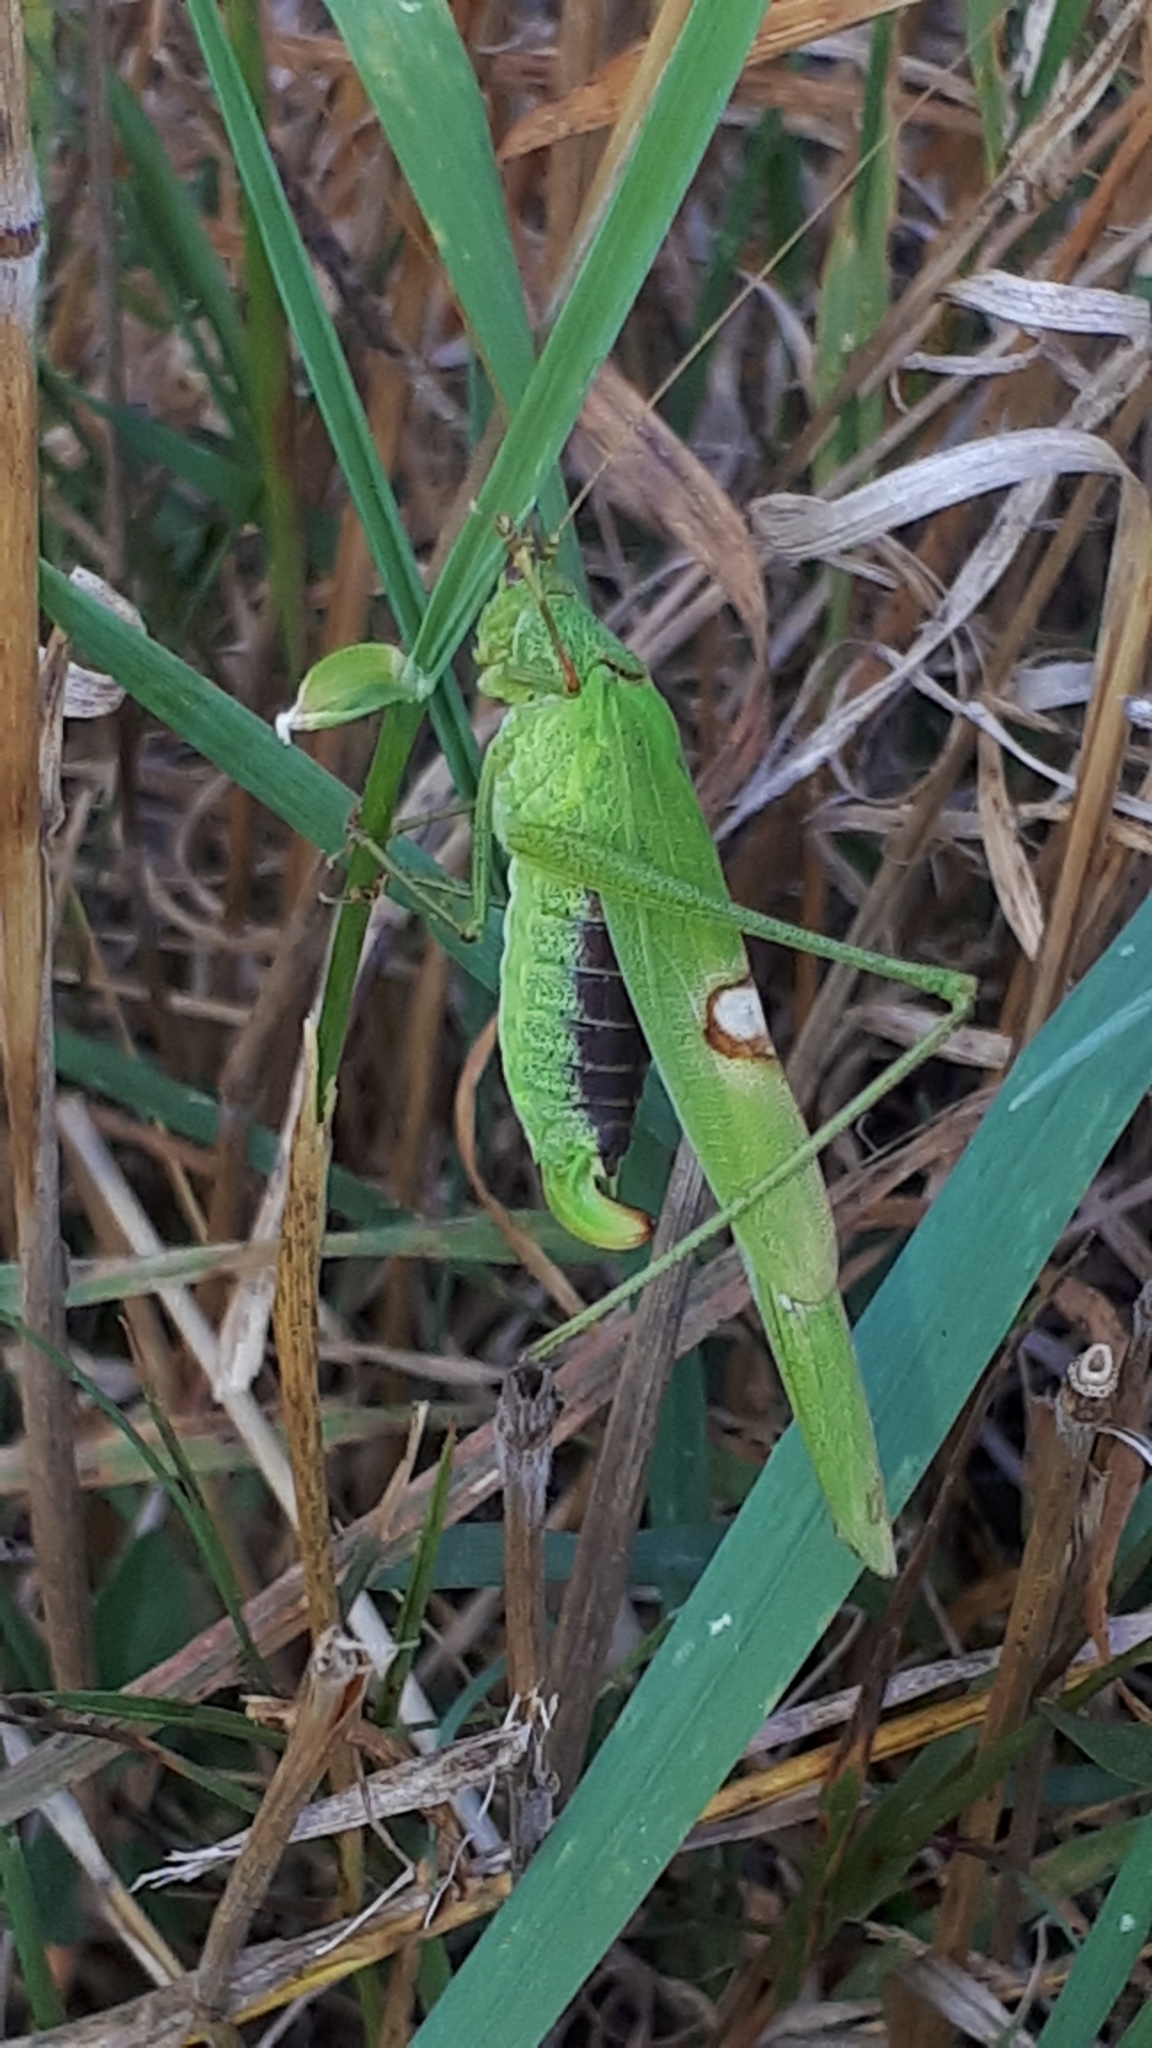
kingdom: Animalia
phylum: Arthropoda
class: Insecta
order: Orthoptera
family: Tettigoniidae
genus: Phaneroptera
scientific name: Phaneroptera falcata
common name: Sickle-bearing bush-cricket
